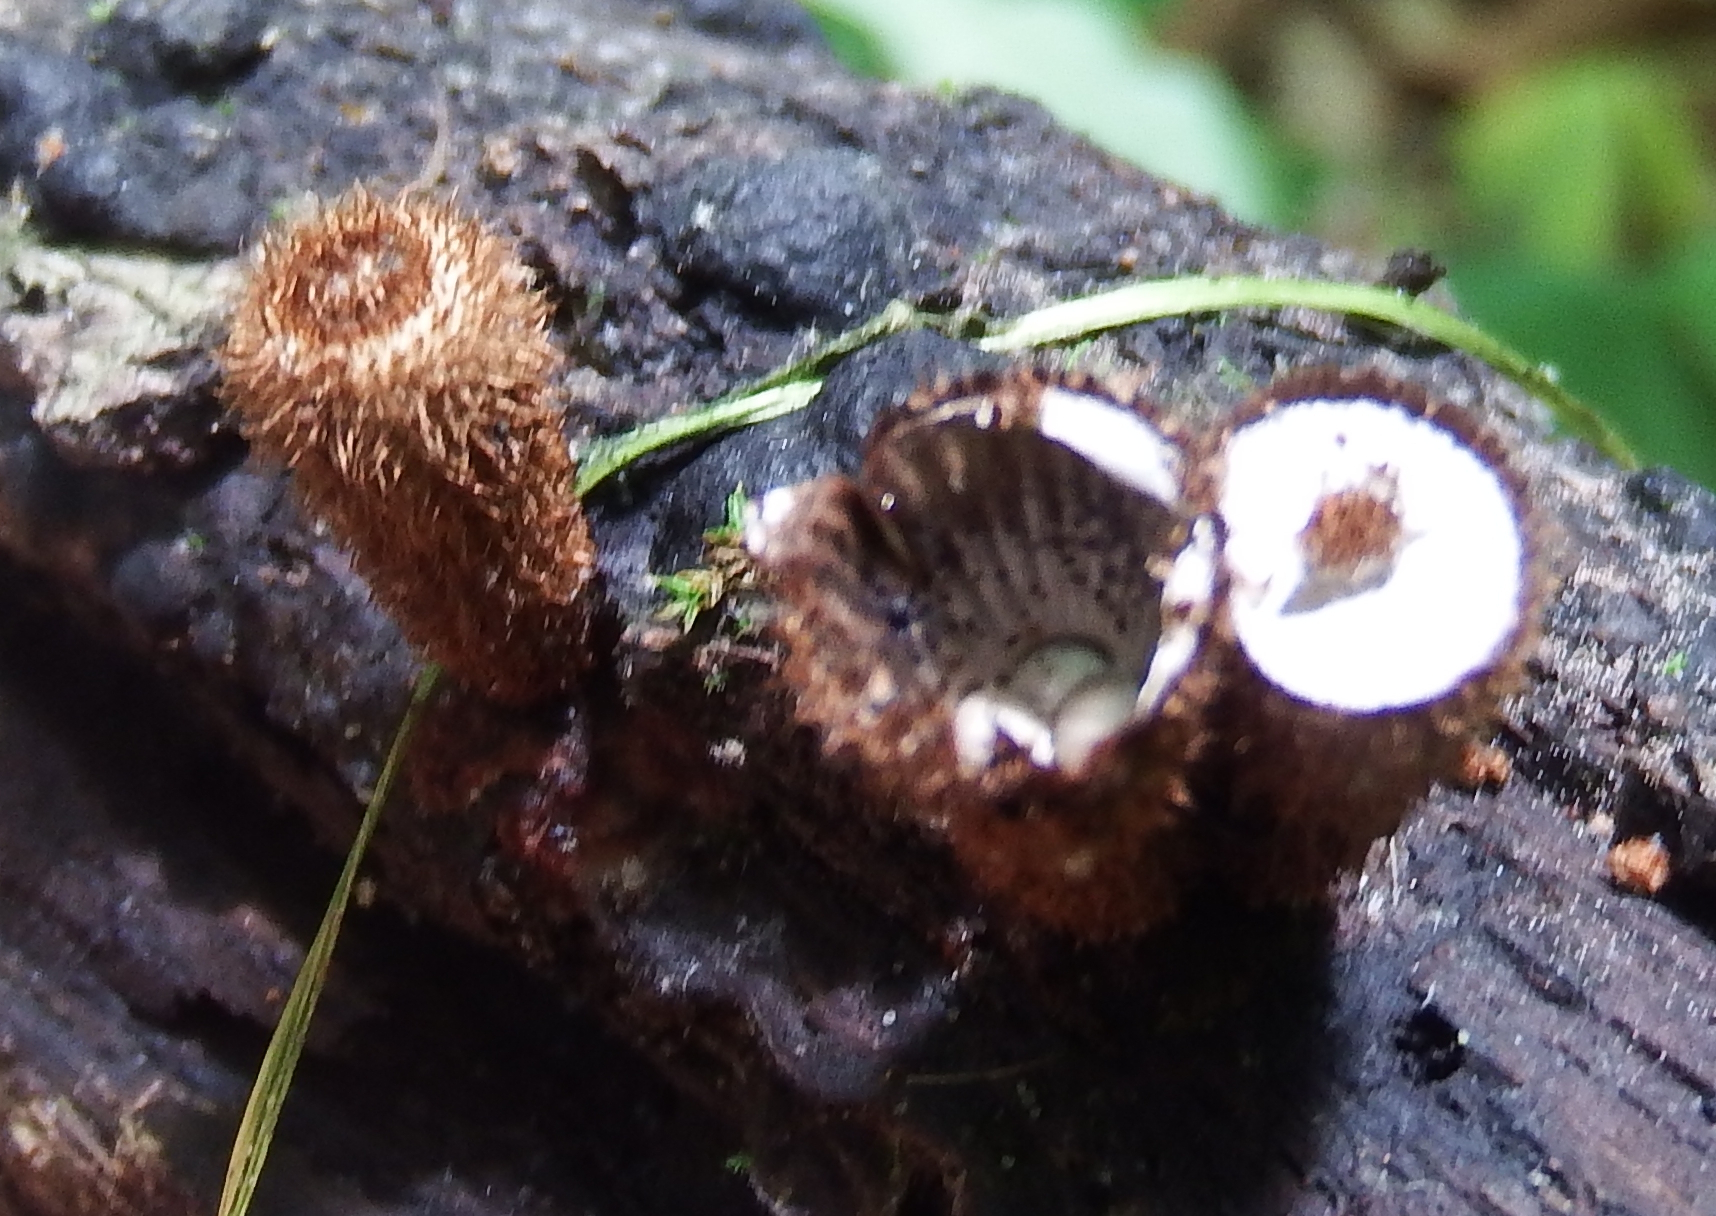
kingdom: Fungi
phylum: Basidiomycota
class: Agaricomycetes
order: Agaricales
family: Agaricaceae
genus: Cyathus
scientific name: Cyathus striatus
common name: Fluted bird's nest
